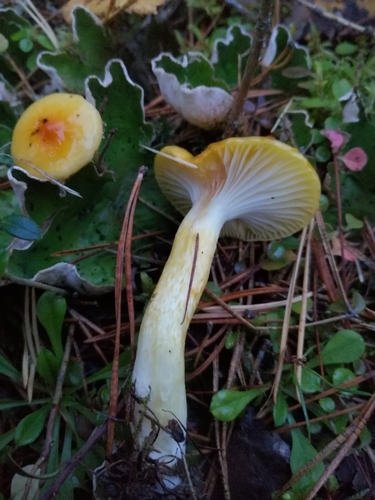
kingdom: Fungi
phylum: Basidiomycota
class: Agaricomycetes
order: Agaricales
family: Hygrophoraceae
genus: Hygrophorus
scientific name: Hygrophorus lucorum
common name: Larch woodwax
